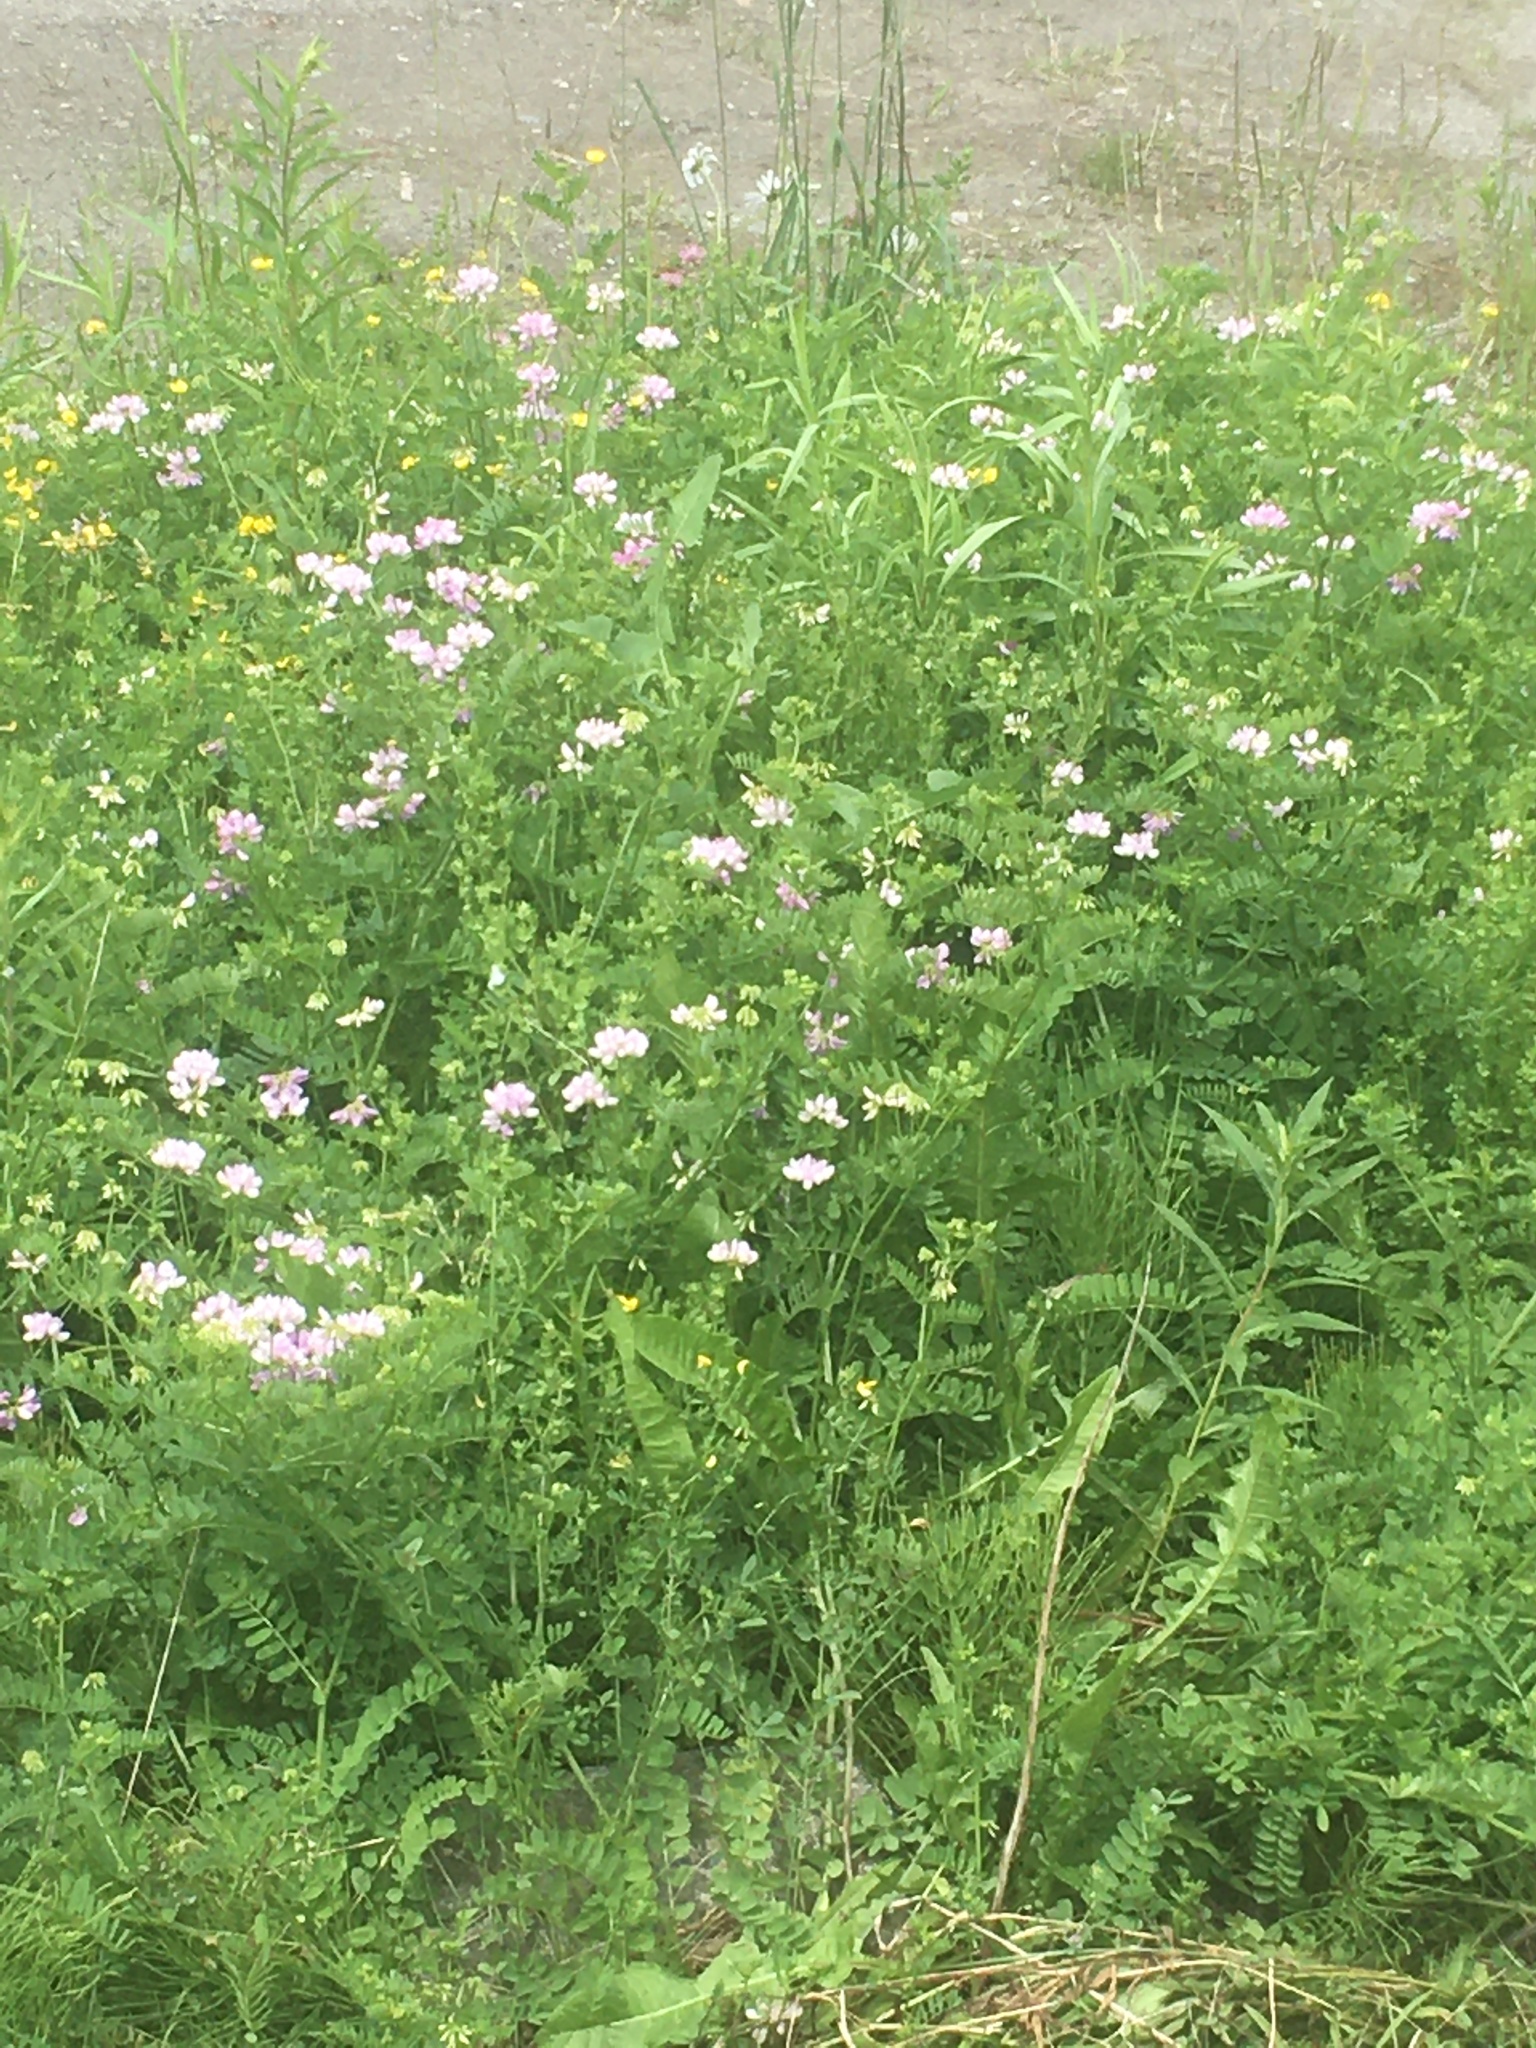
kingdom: Plantae
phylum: Tracheophyta
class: Magnoliopsida
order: Fabales
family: Fabaceae
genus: Coronilla
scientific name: Coronilla varia
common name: Crownvetch
